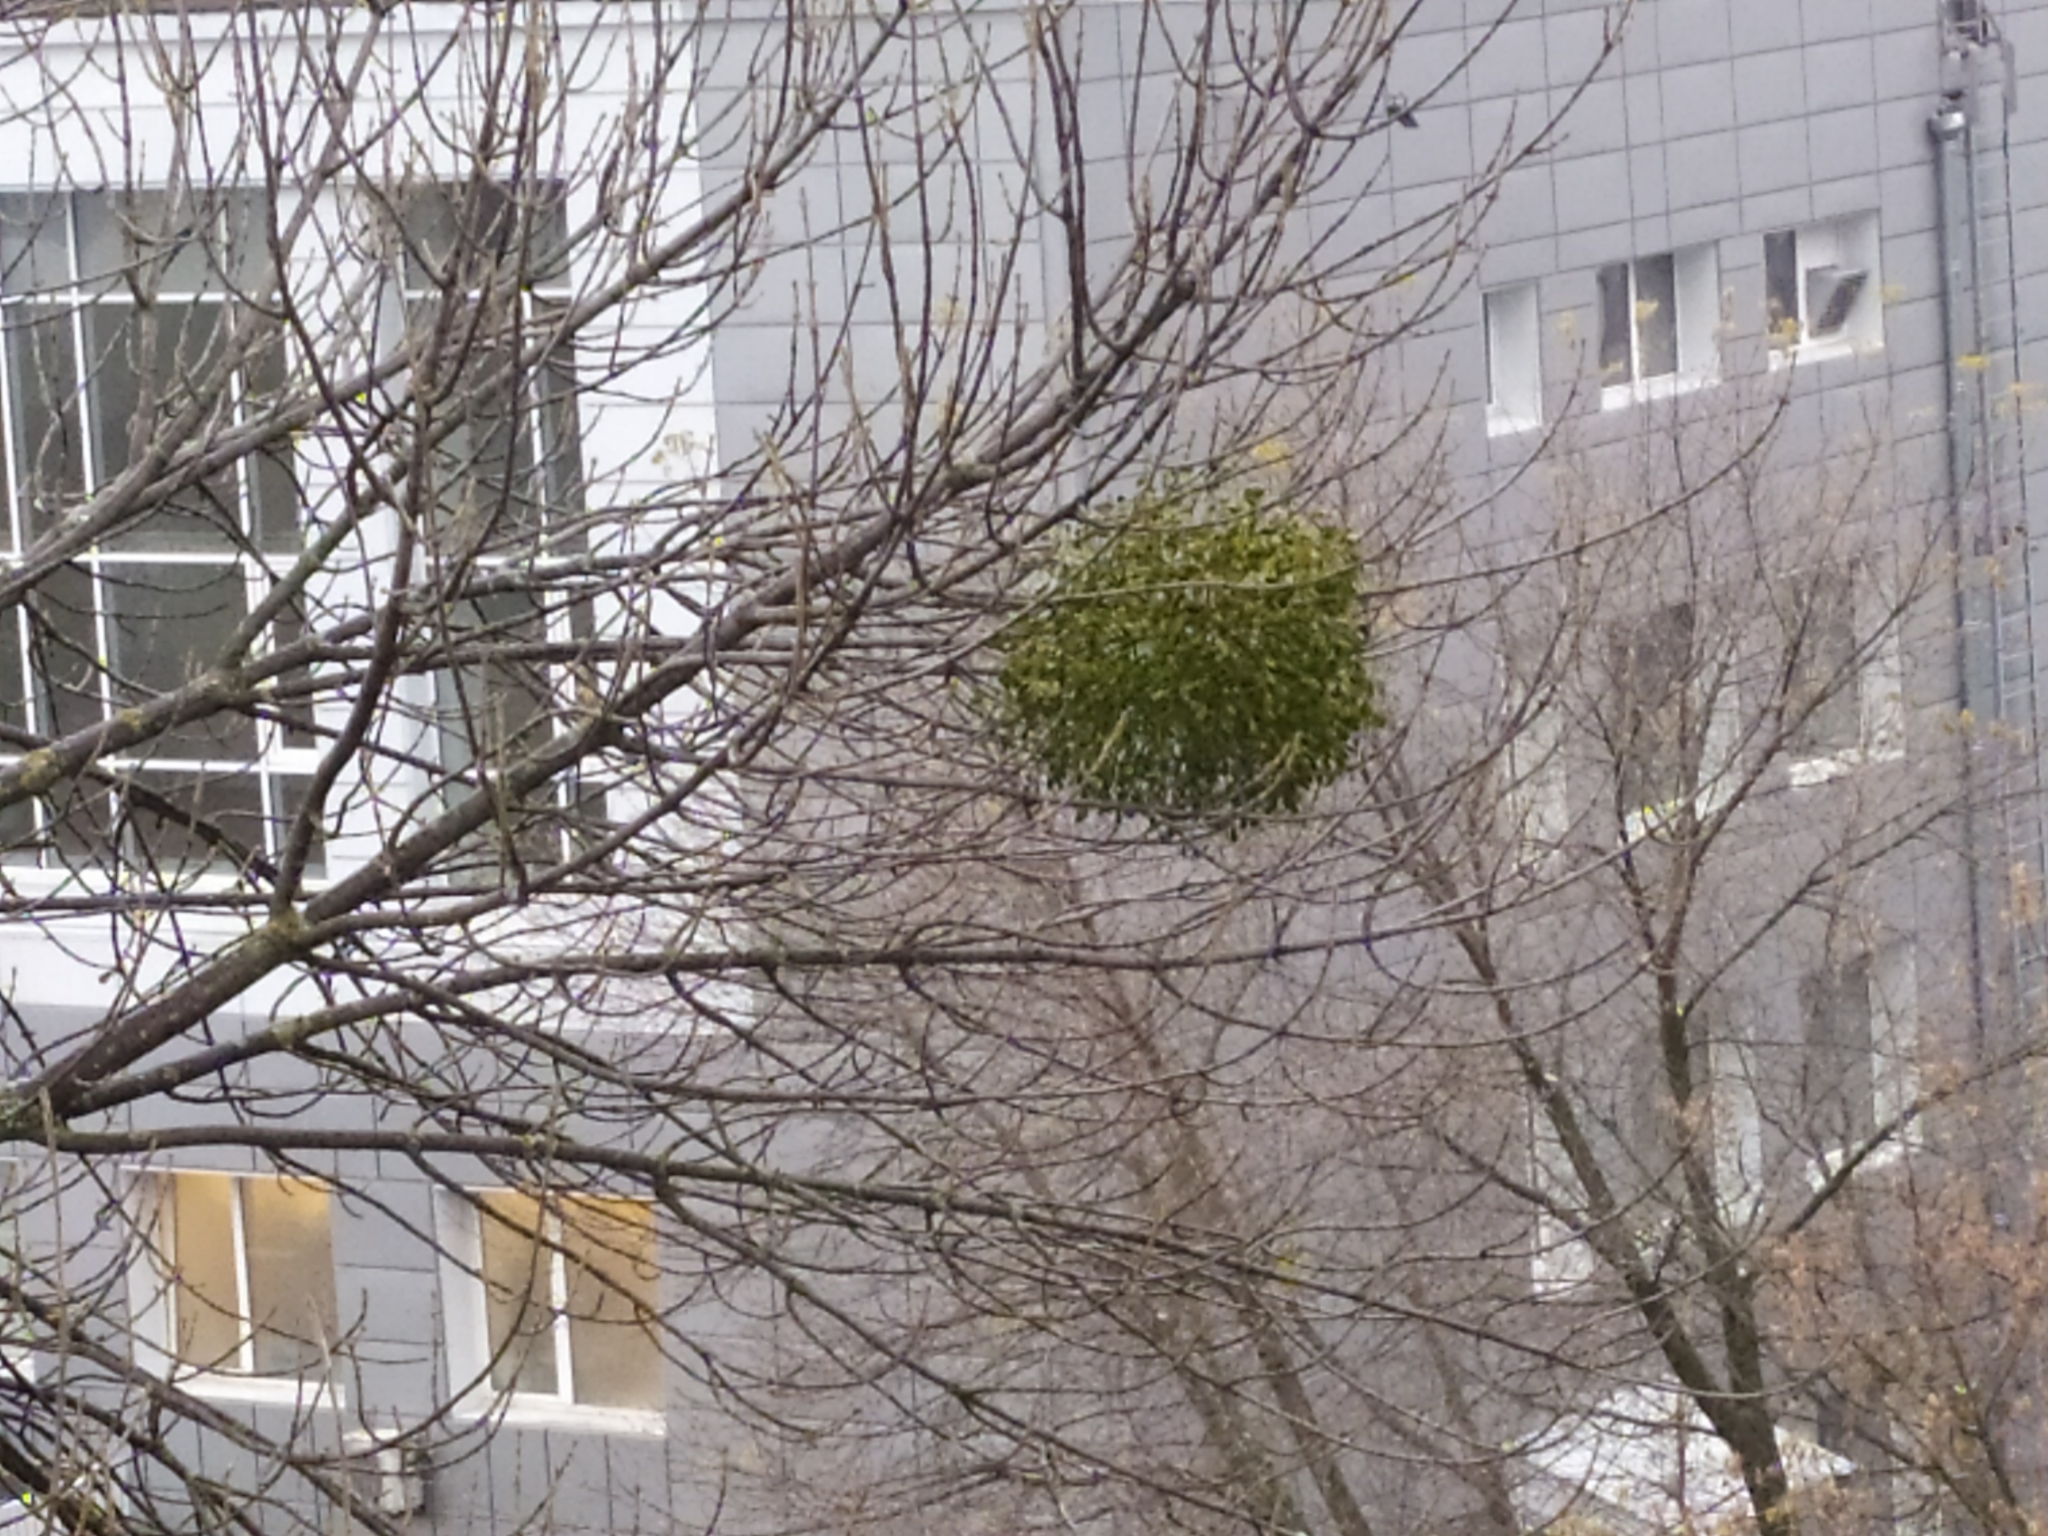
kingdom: Plantae
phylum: Tracheophyta
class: Magnoliopsida
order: Santalales
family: Viscaceae
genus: Viscum
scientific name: Viscum album
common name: Mistletoe
